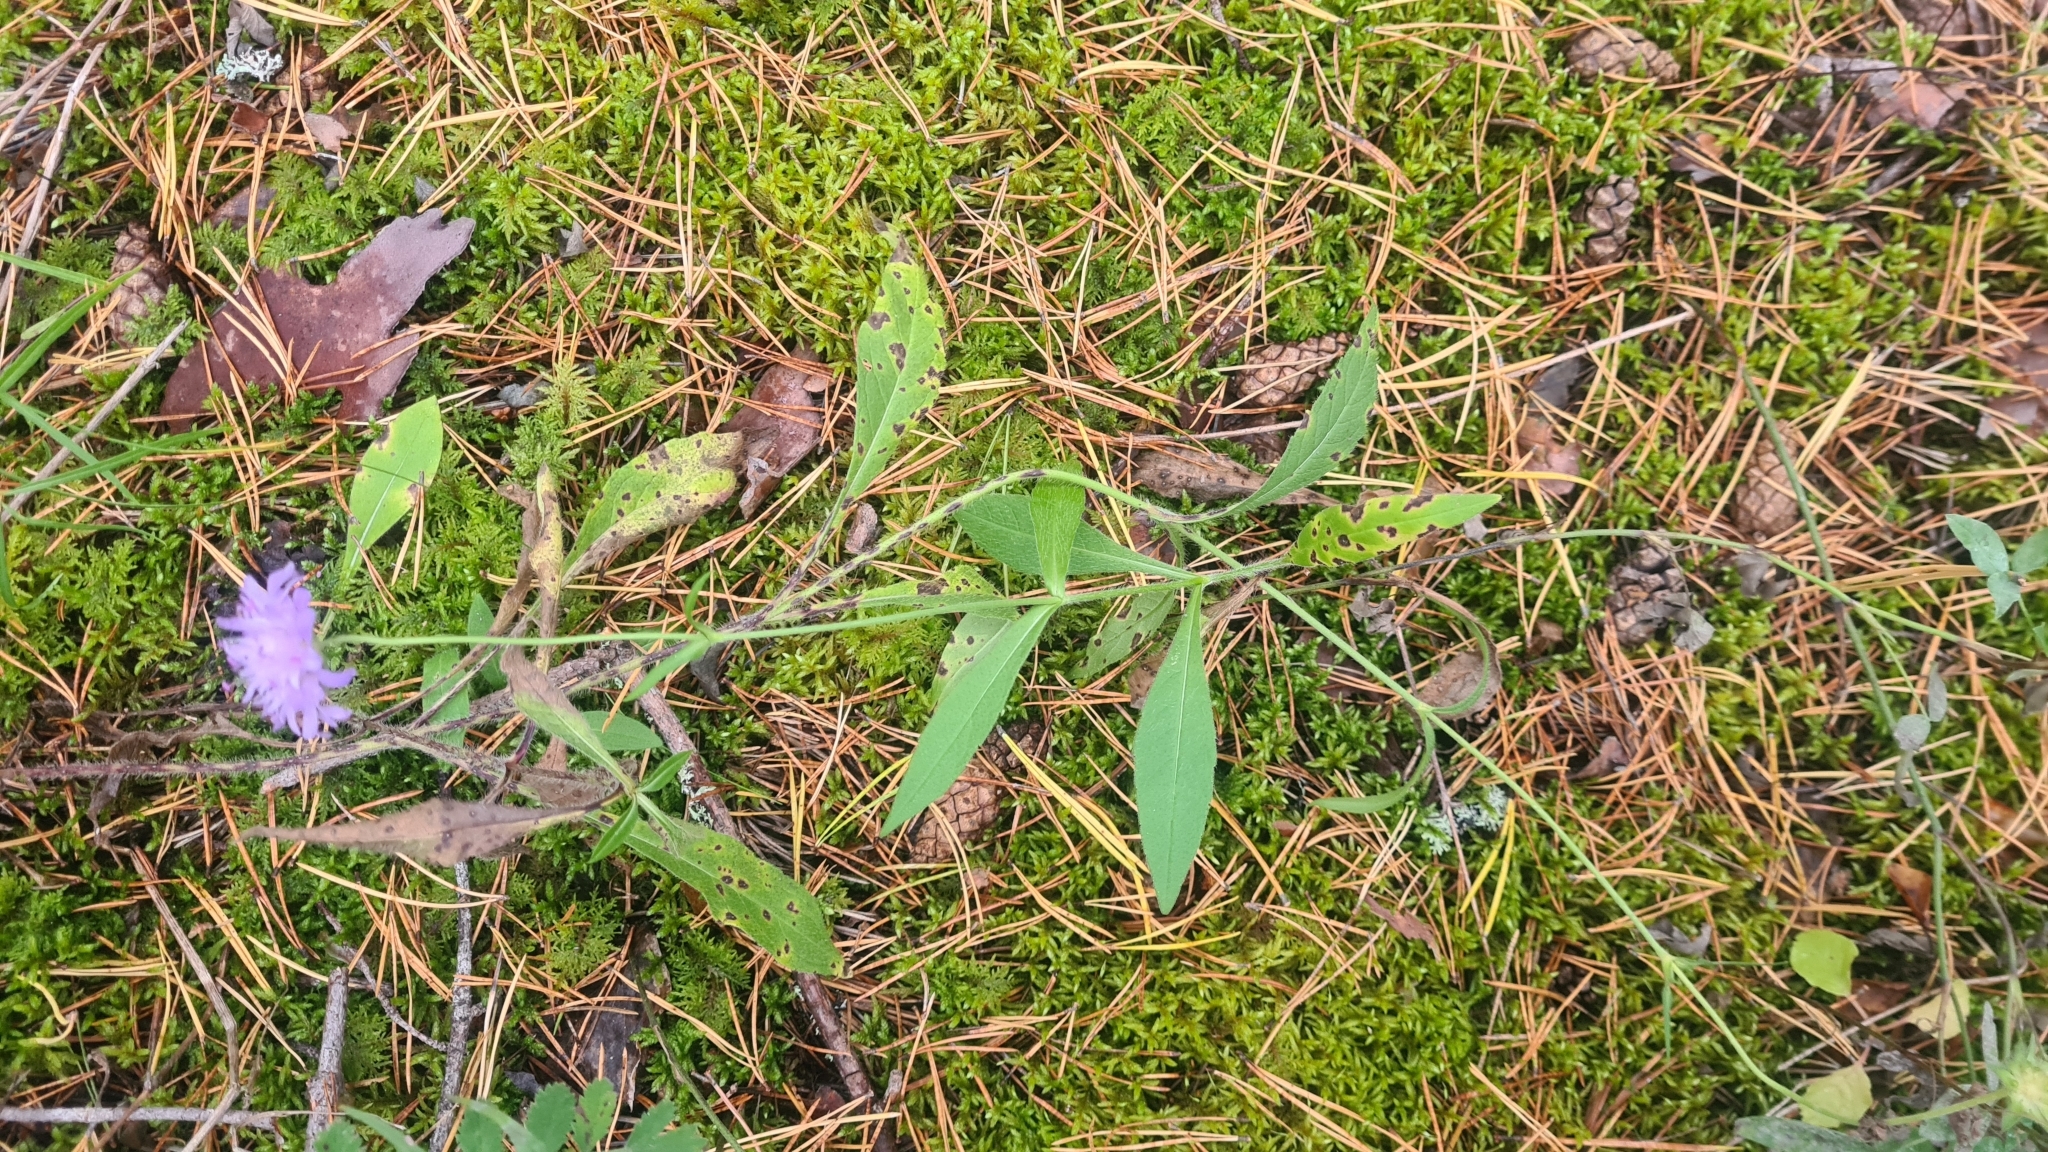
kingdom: Plantae
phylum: Tracheophyta
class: Magnoliopsida
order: Dipsacales
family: Caprifoliaceae
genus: Knautia
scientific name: Knautia arvensis
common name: Field scabiosa
